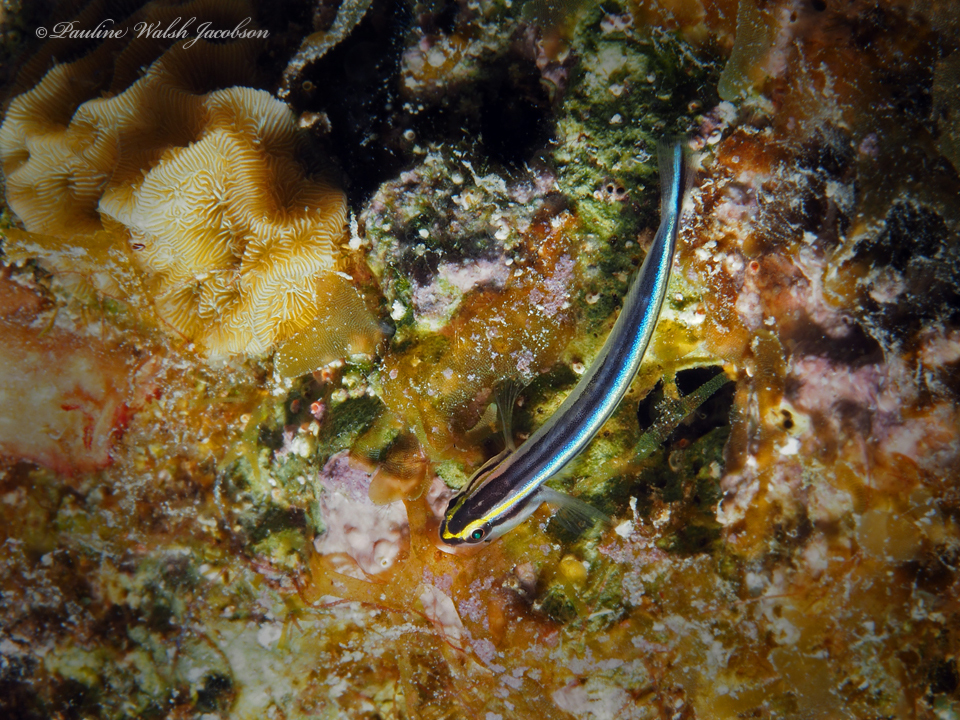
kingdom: Animalia
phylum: Chordata
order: Perciformes
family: Gobiidae
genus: Elacatinus
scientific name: Elacatinus evelynae
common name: Sharknose goby
